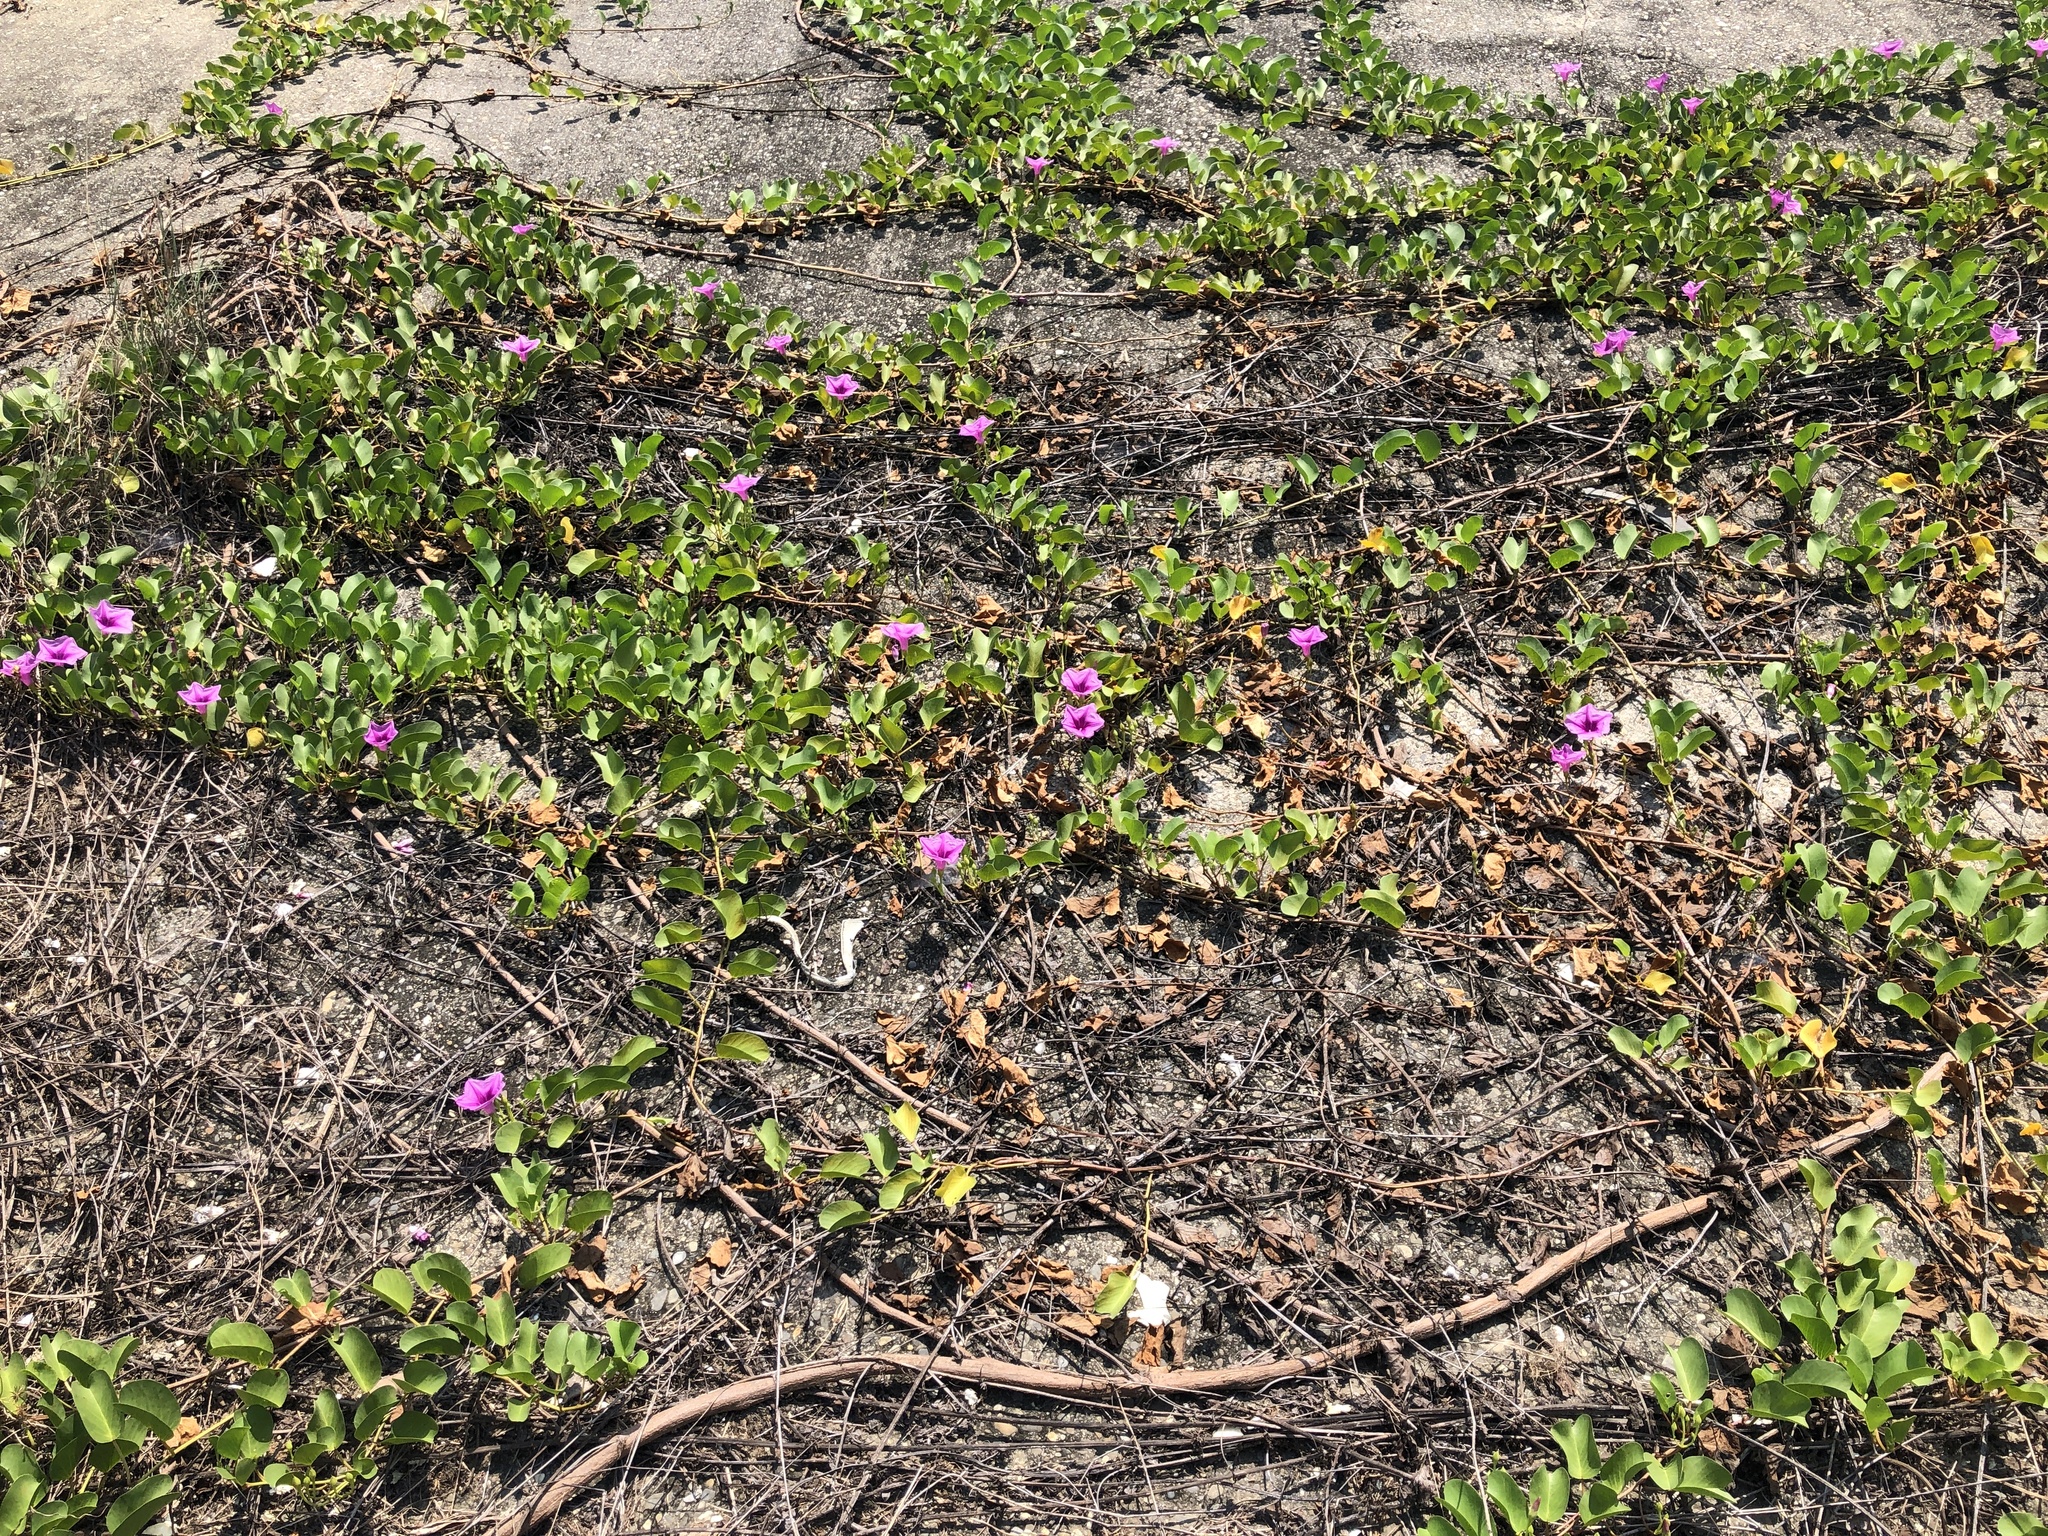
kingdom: Plantae
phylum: Tracheophyta
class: Magnoliopsida
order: Solanales
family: Convolvulaceae
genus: Ipomoea
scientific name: Ipomoea pes-caprae
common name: Beach morning glory
